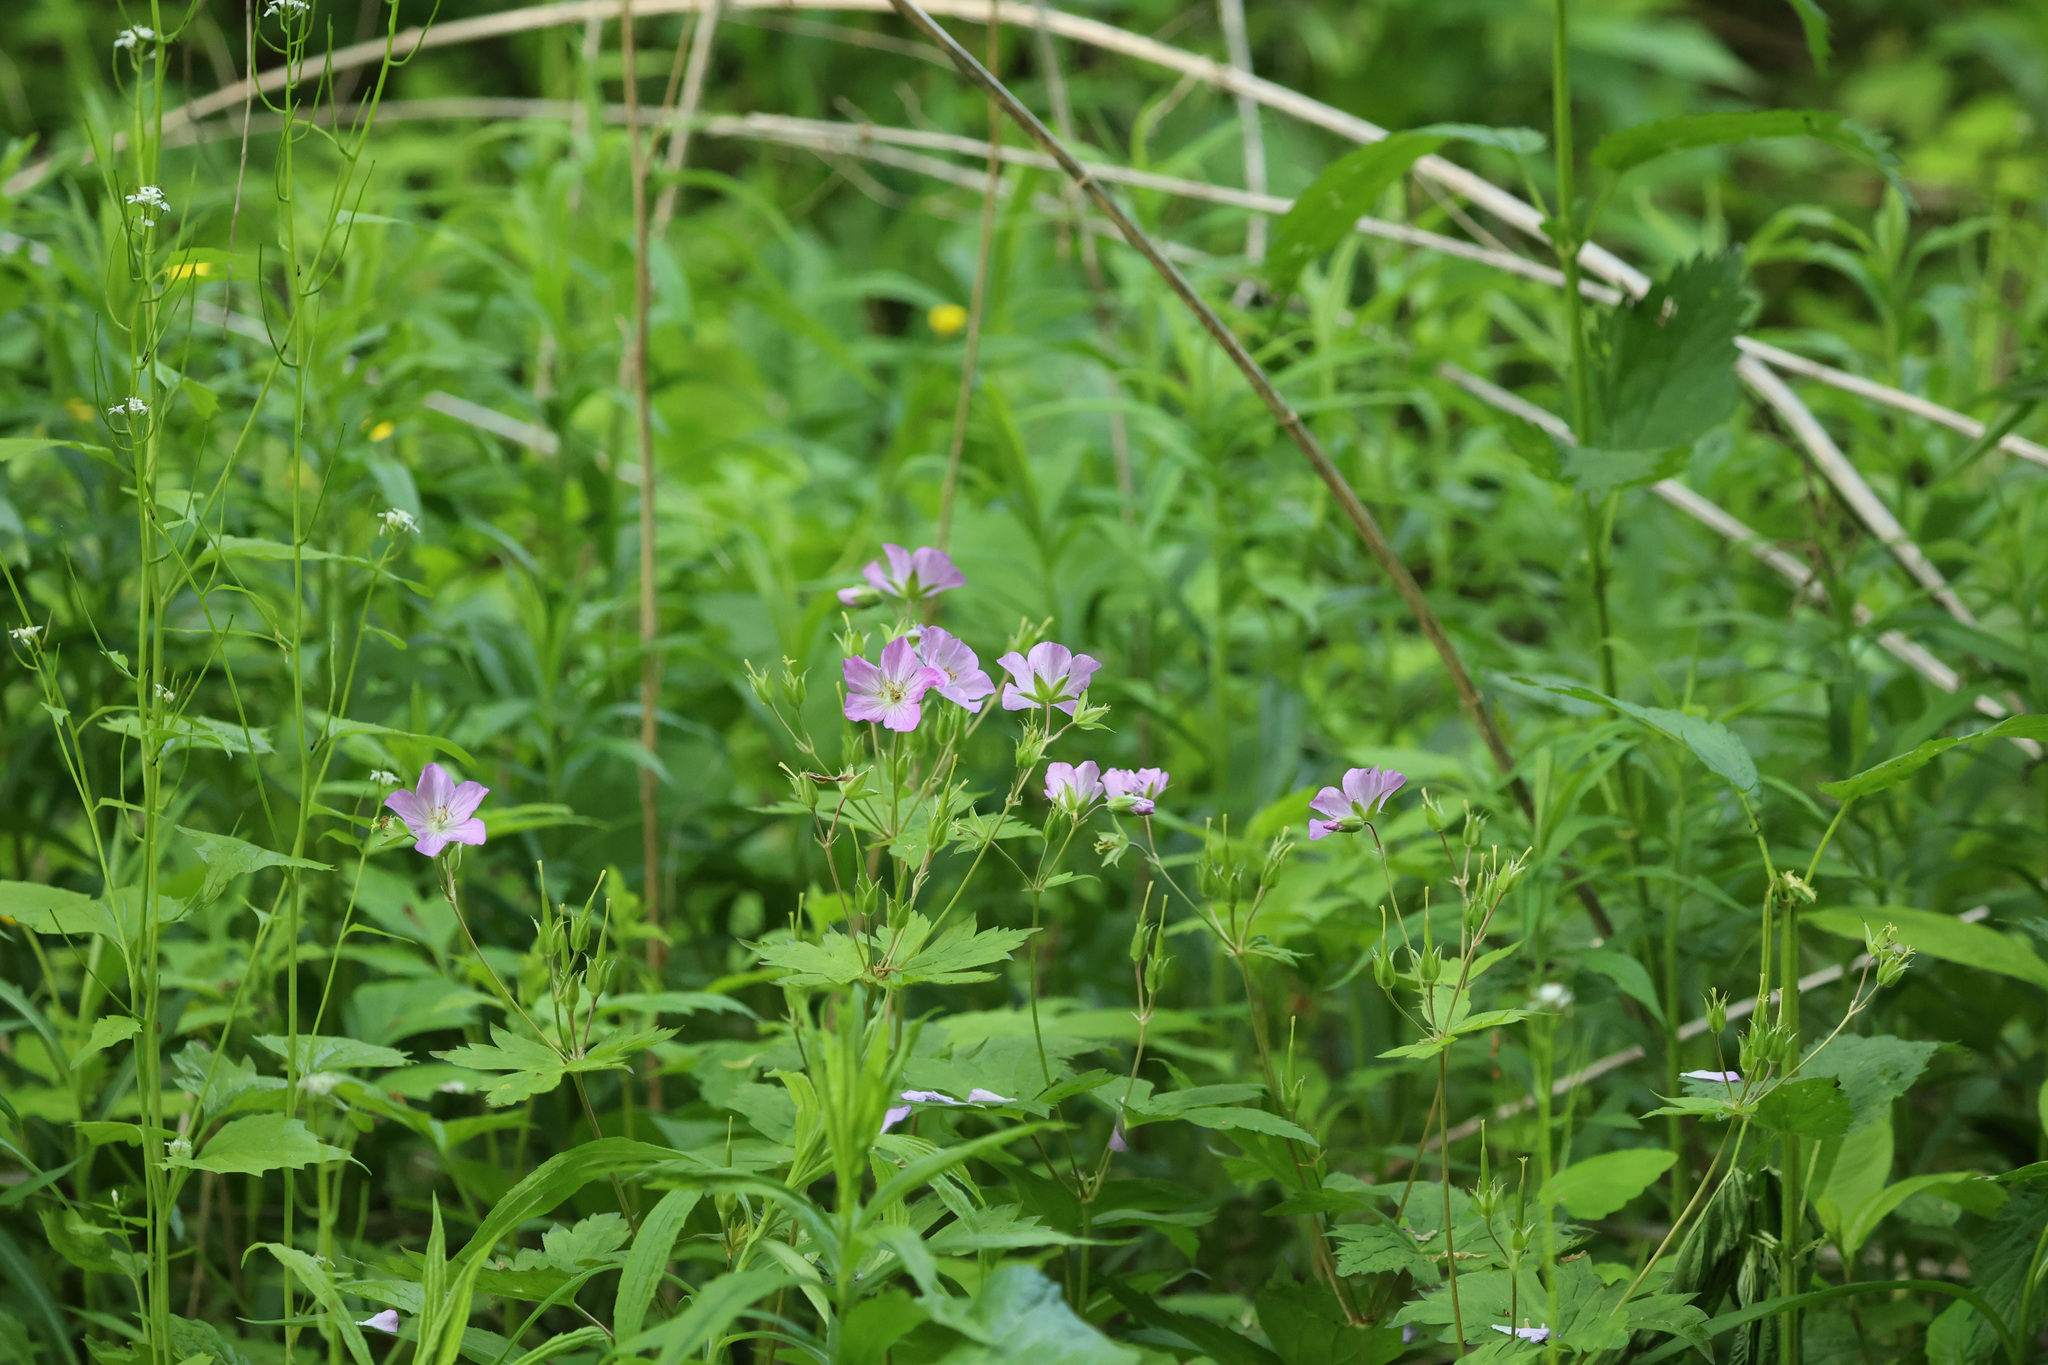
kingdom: Plantae
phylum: Tracheophyta
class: Magnoliopsida
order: Geraniales
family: Geraniaceae
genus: Geranium
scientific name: Geranium maculatum
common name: Spotted geranium
